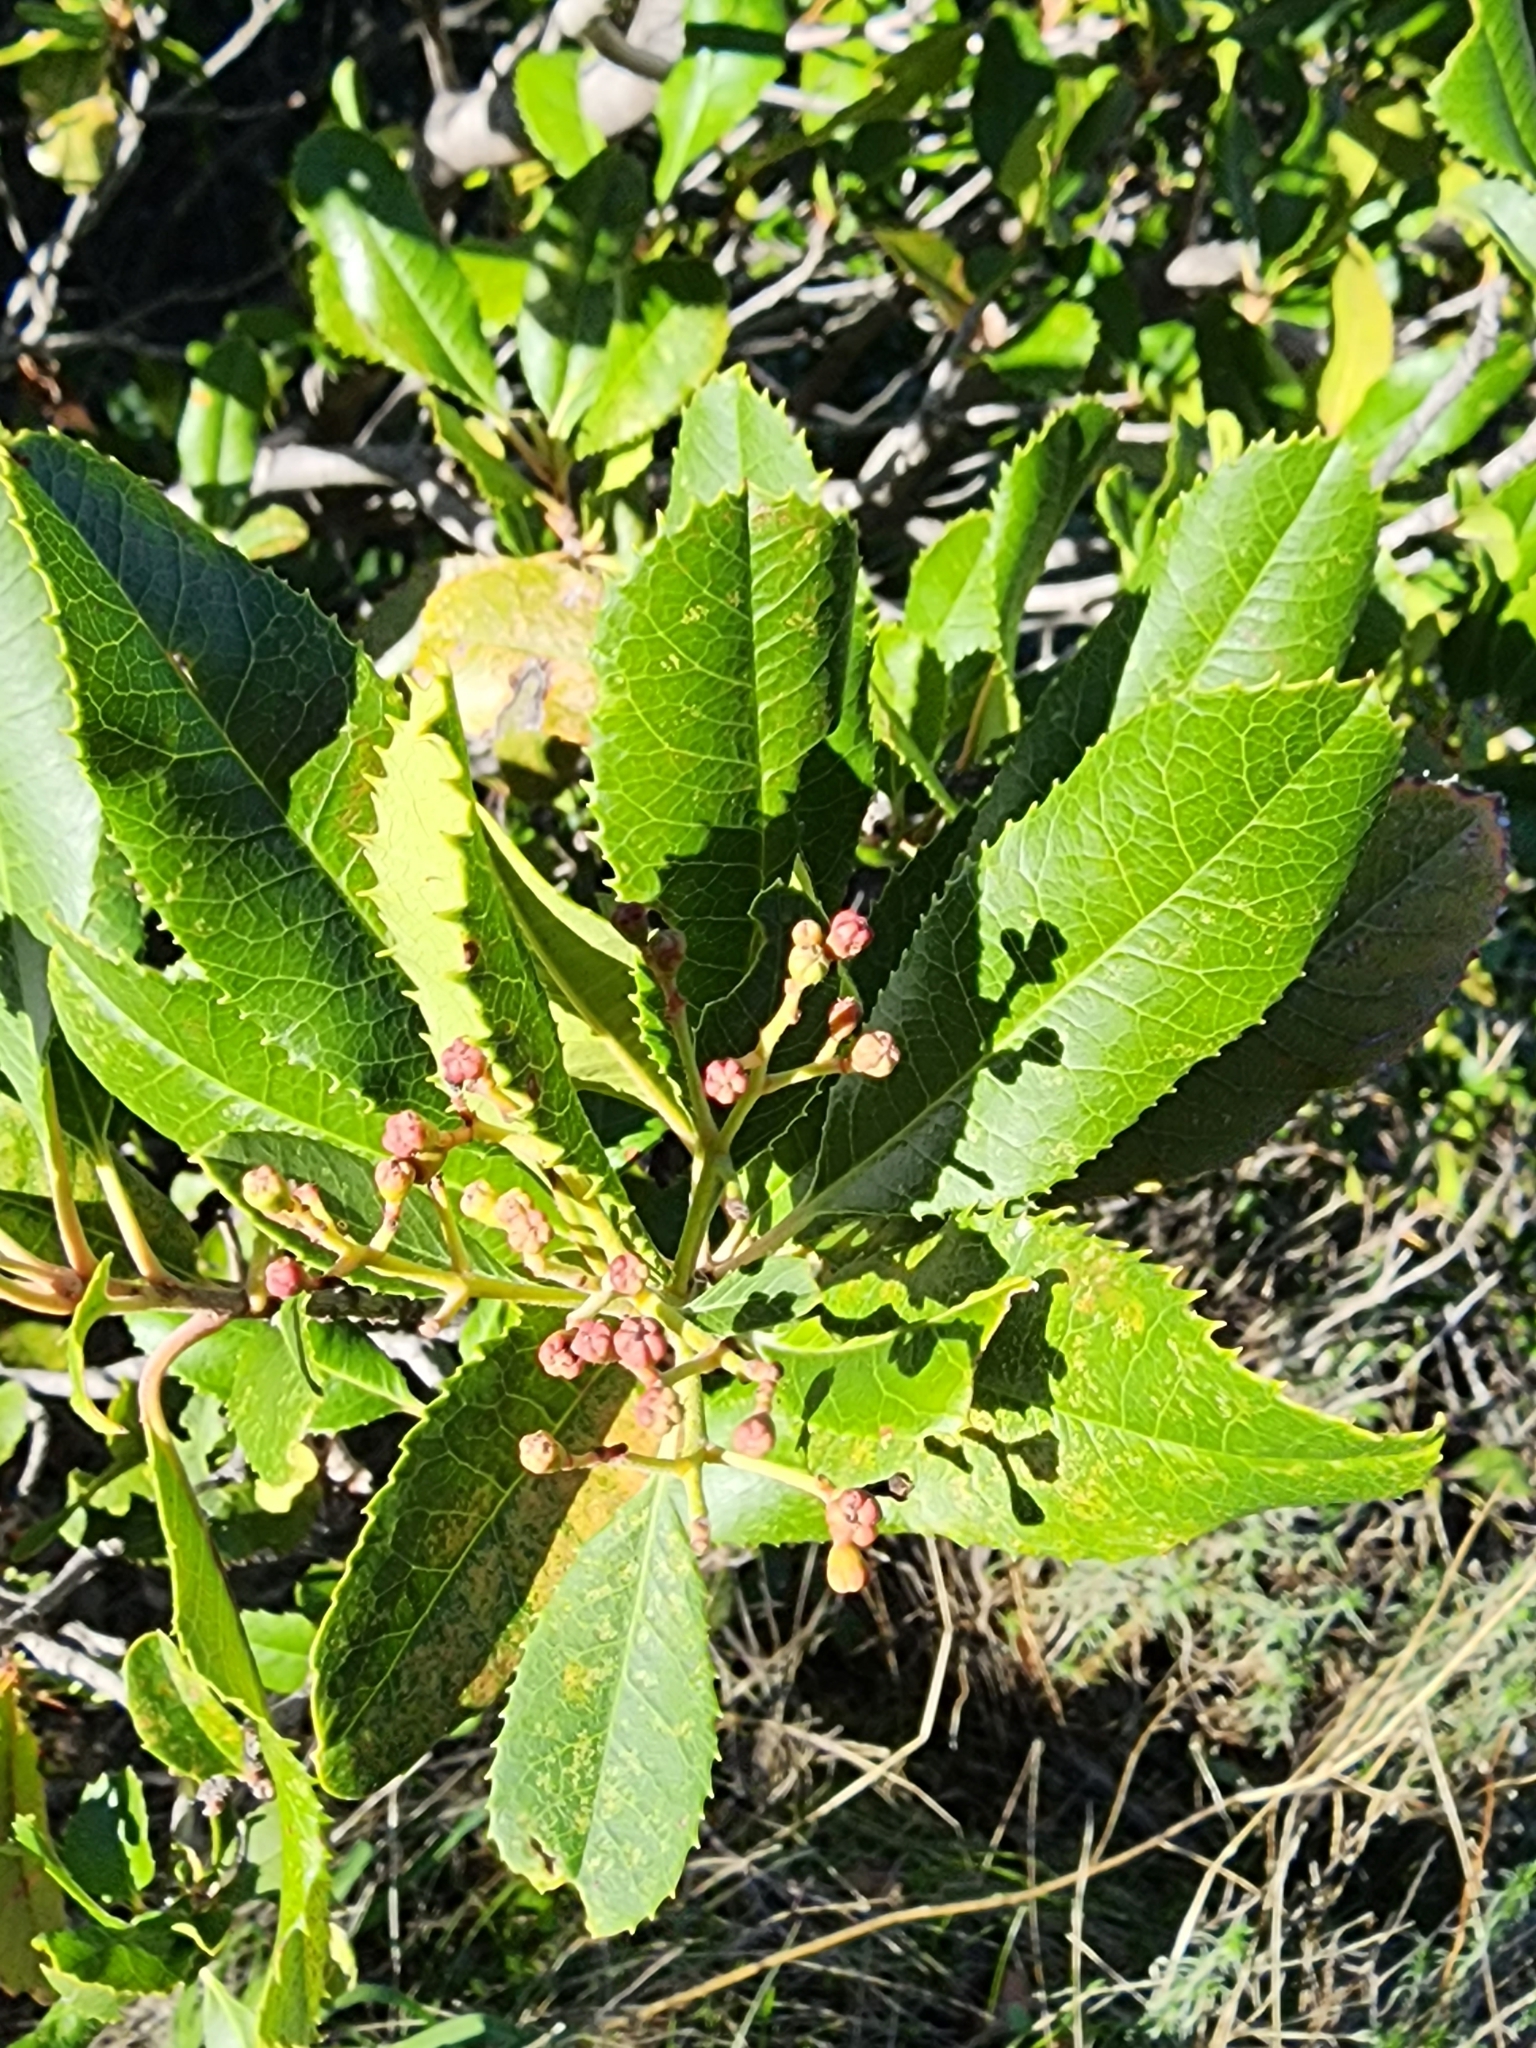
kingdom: Plantae
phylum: Tracheophyta
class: Magnoliopsida
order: Rosales
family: Rosaceae
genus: Heteromeles
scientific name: Heteromeles arbutifolia
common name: California-holly
